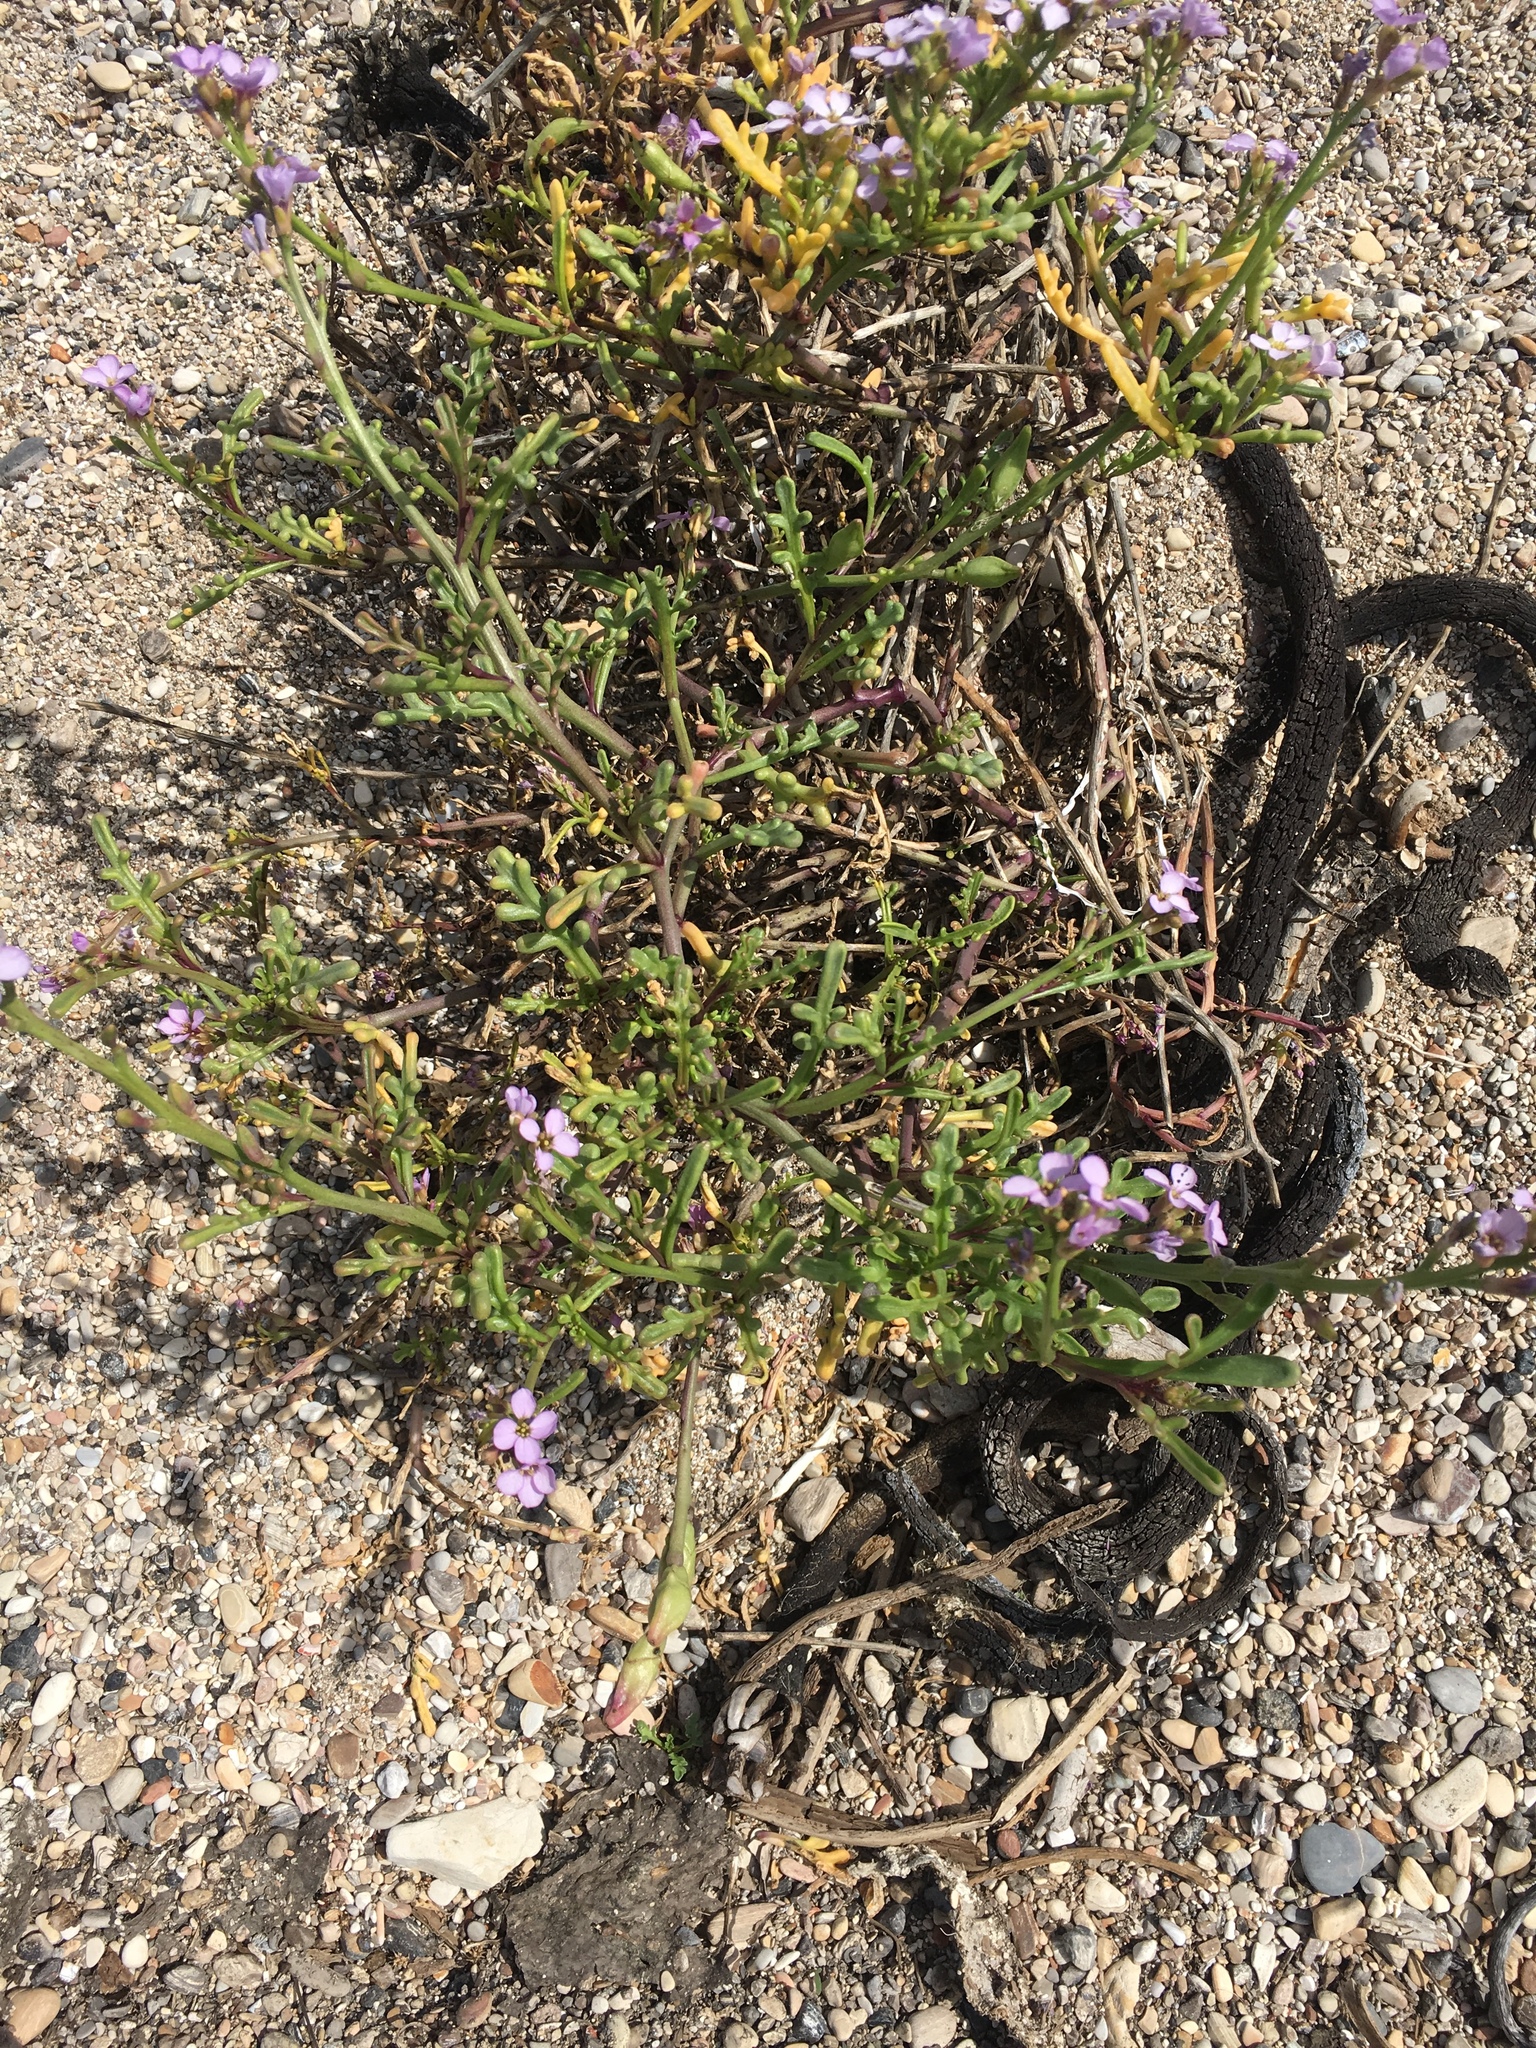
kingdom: Plantae
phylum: Tracheophyta
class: Magnoliopsida
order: Brassicales
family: Brassicaceae
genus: Cakile
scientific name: Cakile maritima
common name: Sea rocket
